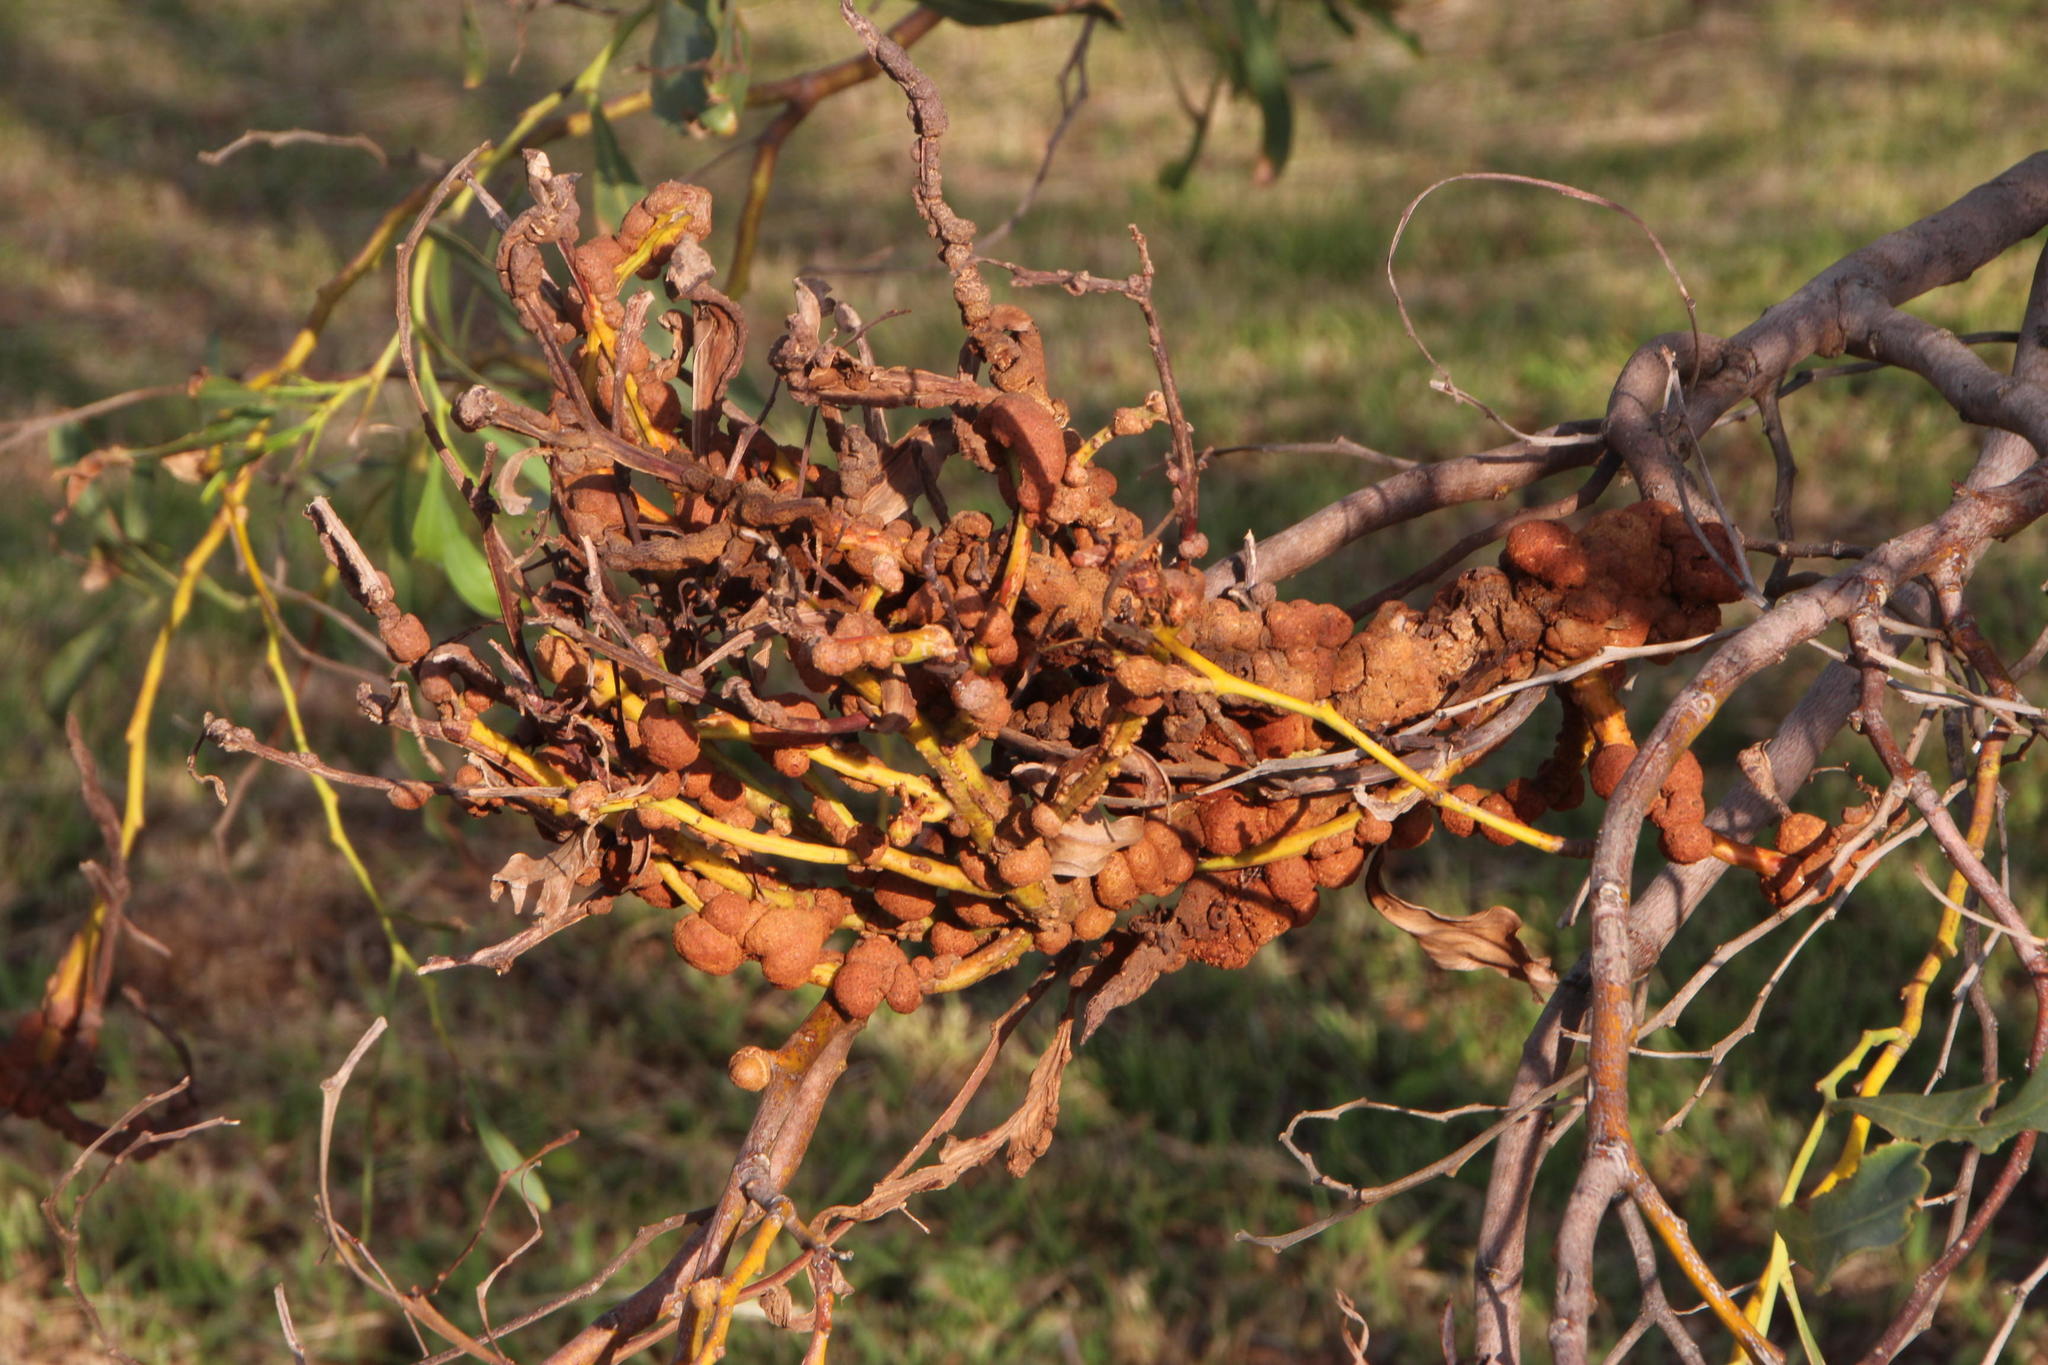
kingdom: Plantae
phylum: Tracheophyta
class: Magnoliopsida
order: Fabales
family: Fabaceae
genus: Acacia
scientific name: Acacia saligna
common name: Orange wattle
